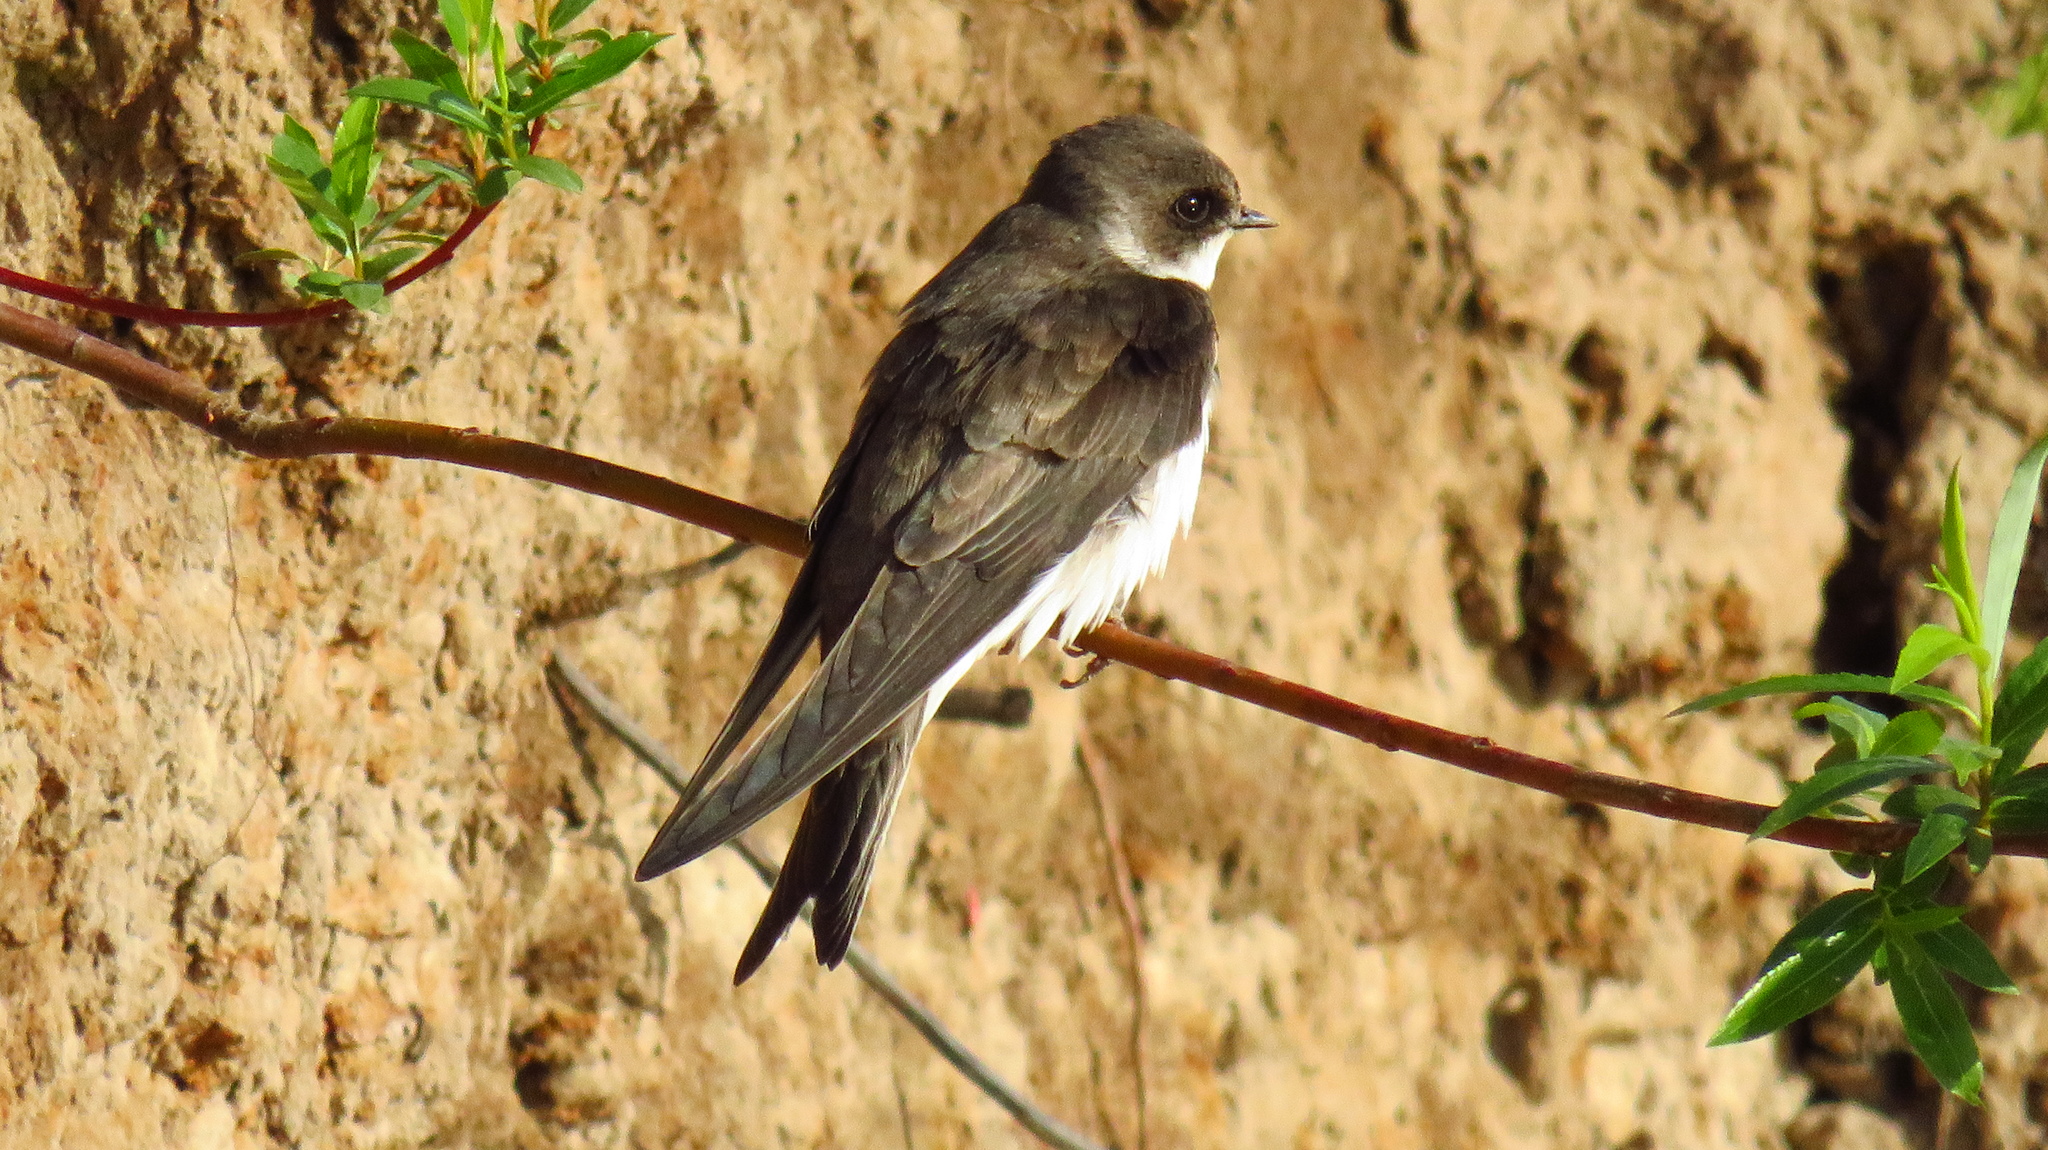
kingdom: Animalia
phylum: Chordata
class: Aves
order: Passeriformes
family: Hirundinidae
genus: Riparia
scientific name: Riparia riparia
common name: Sand martin
